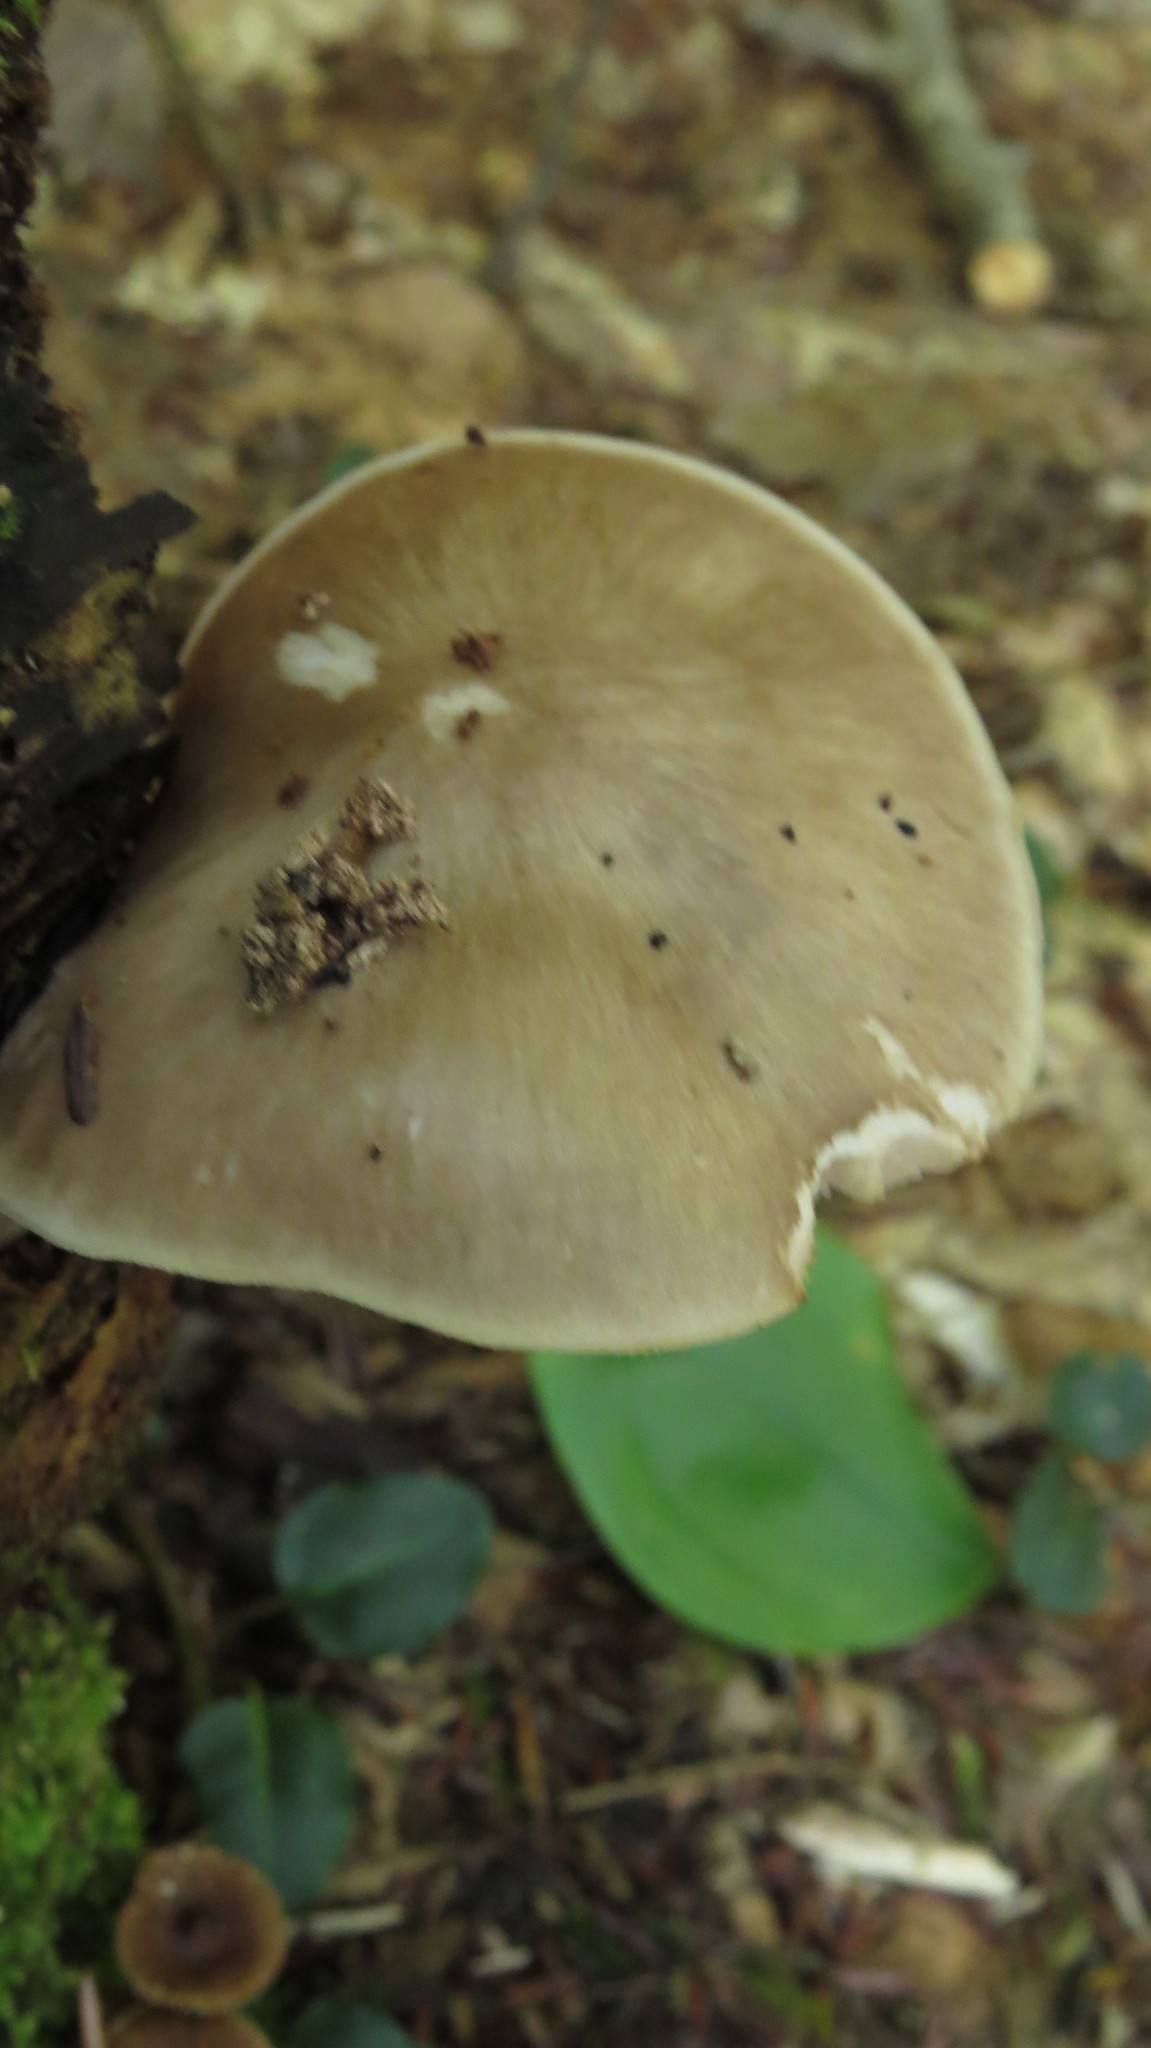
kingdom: Fungi
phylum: Basidiomycota
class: Agaricomycetes
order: Agaricales
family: Pluteaceae
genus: Pluteus
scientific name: Pluteus cervinus
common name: Deer shield
